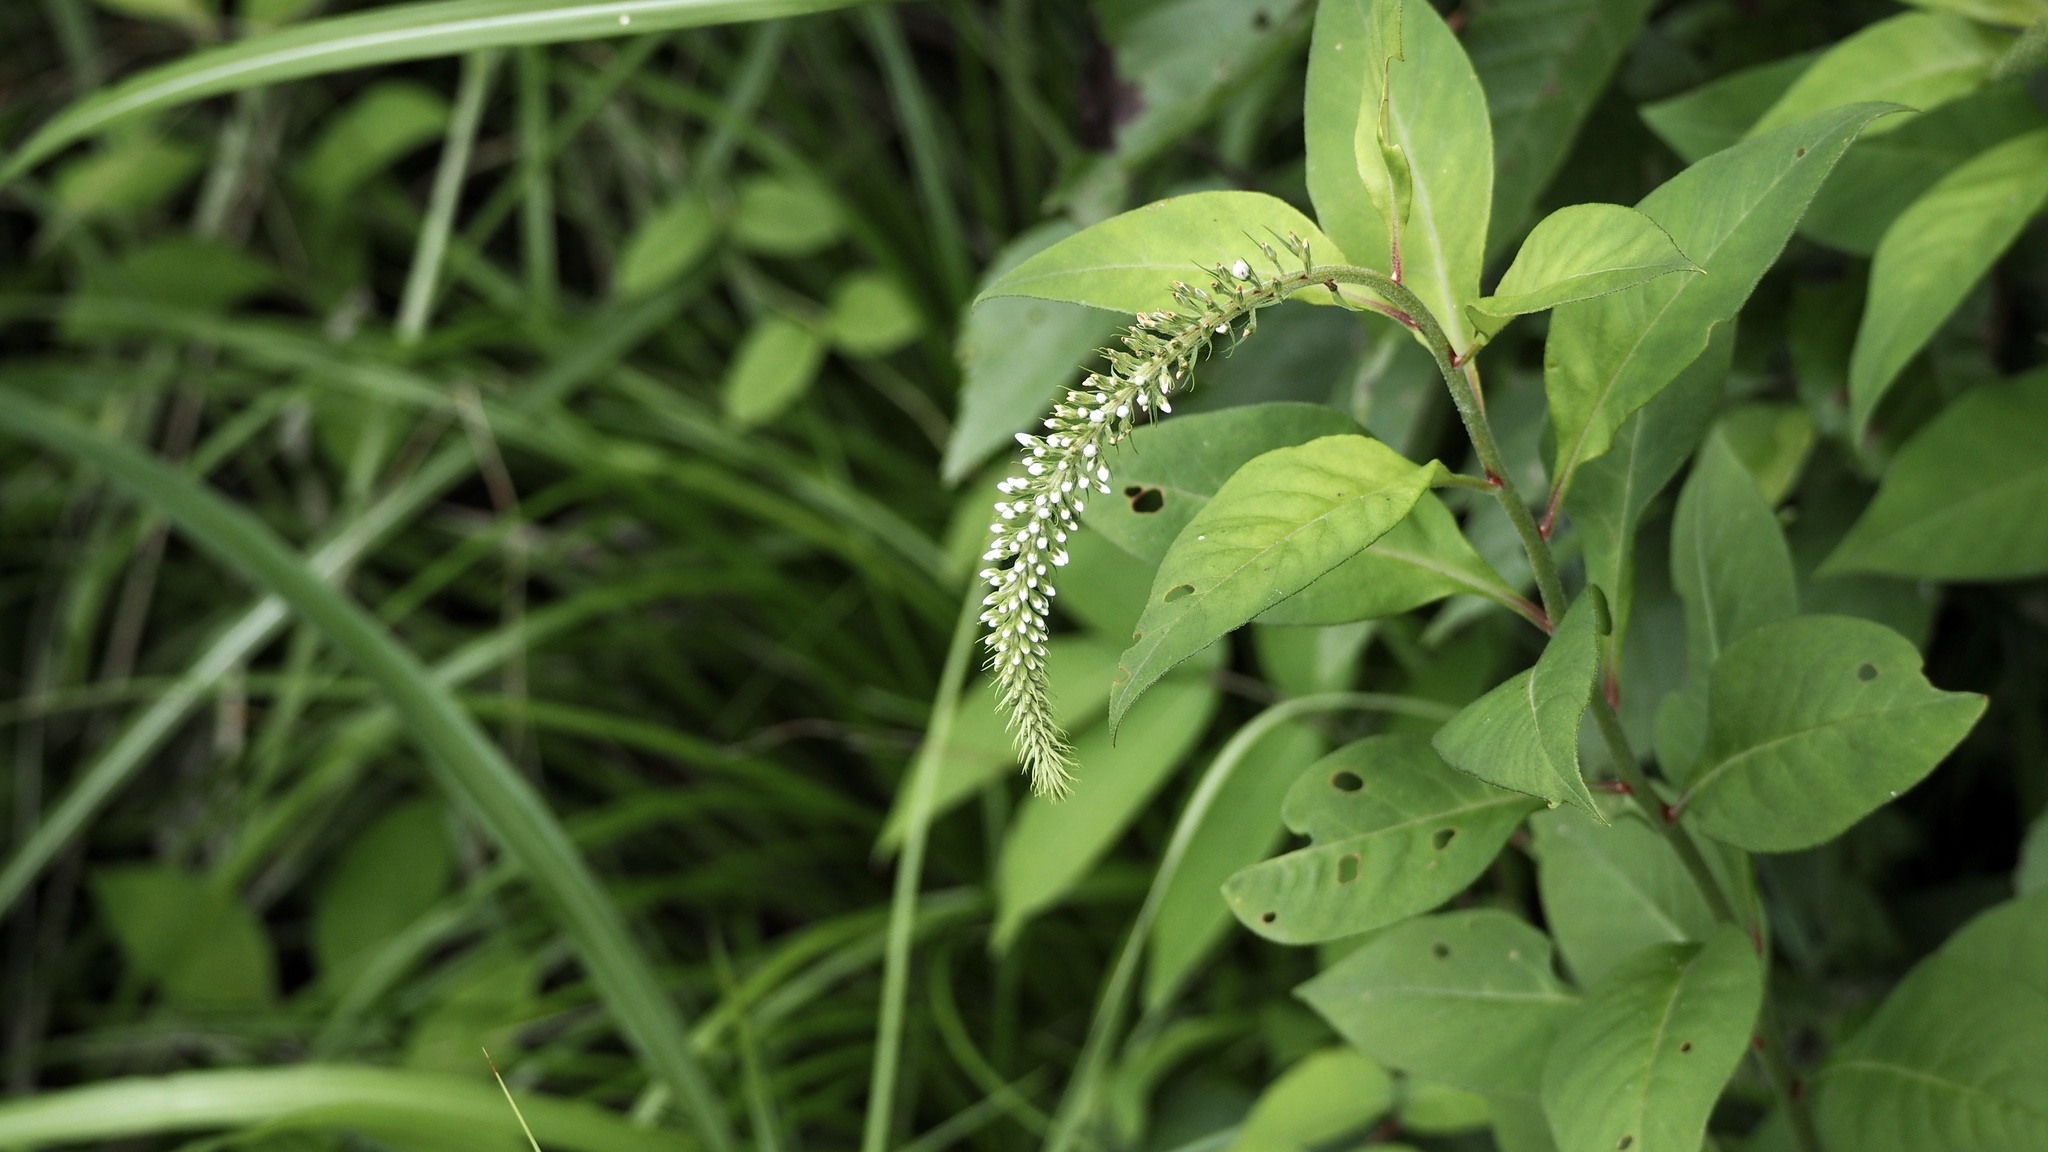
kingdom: Plantae
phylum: Tracheophyta
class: Magnoliopsida
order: Ericales
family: Primulaceae
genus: Lysimachia
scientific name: Lysimachia clethroides
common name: Gooseneck loosestrife
